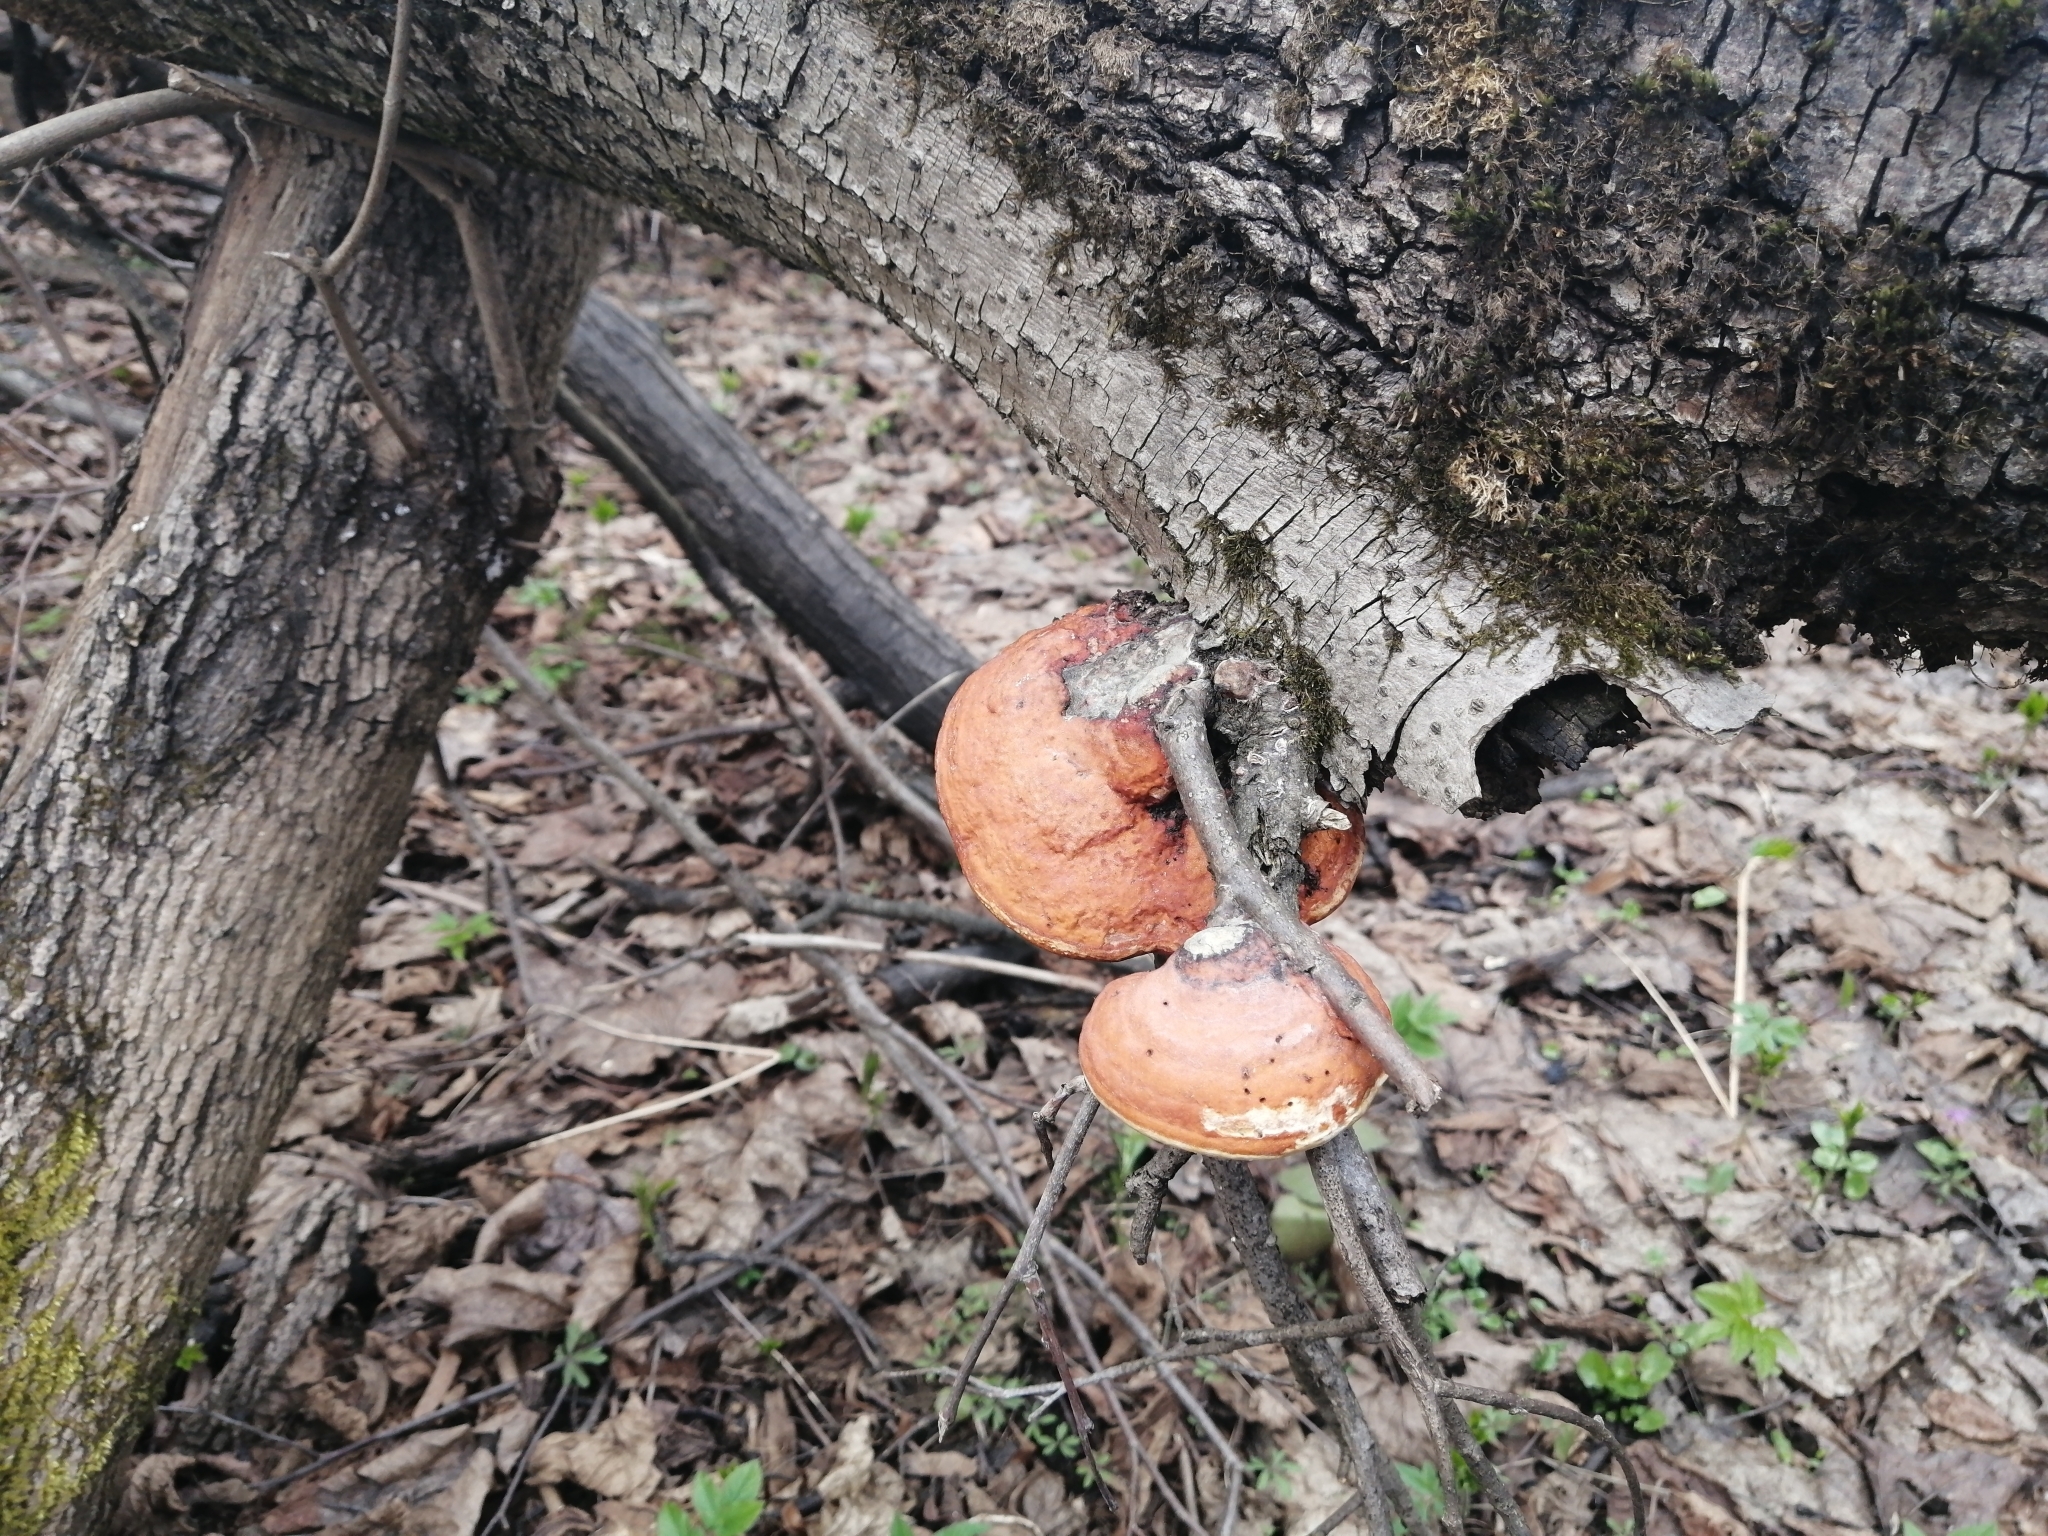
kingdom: Fungi
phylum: Basidiomycota
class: Agaricomycetes
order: Polyporales
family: Fomitopsidaceae
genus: Fomitopsis
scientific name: Fomitopsis pinicola
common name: Red-belted bracket
